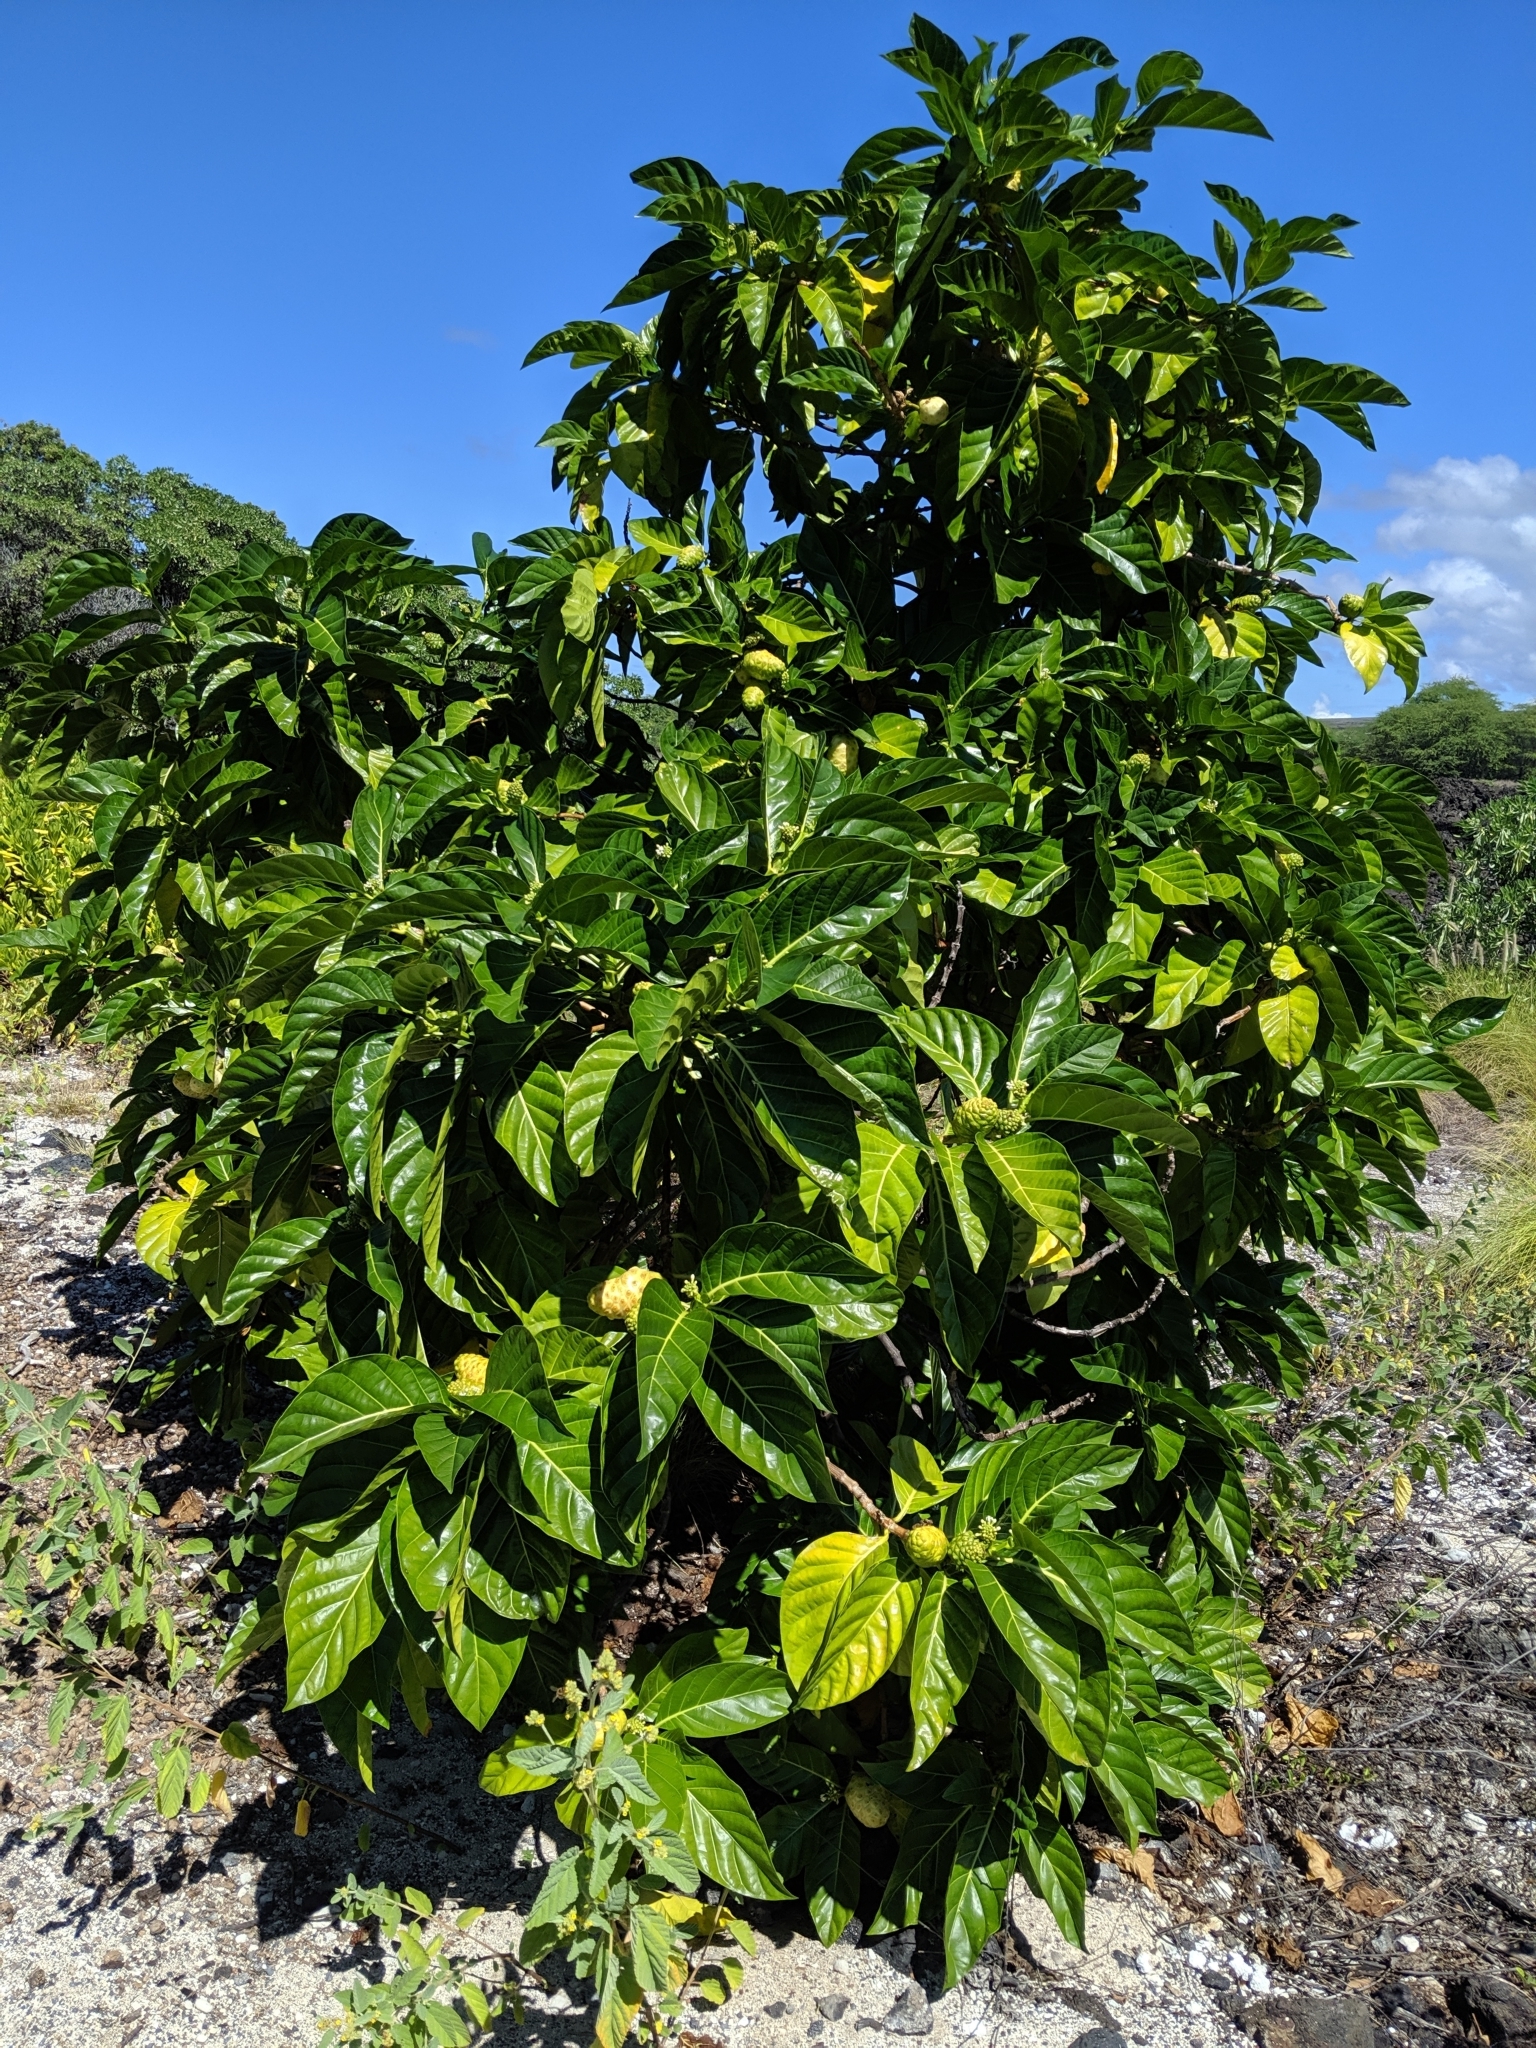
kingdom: Plantae
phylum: Tracheophyta
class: Magnoliopsida
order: Gentianales
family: Rubiaceae
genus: Morinda
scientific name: Morinda citrifolia
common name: Indian-mulberry
